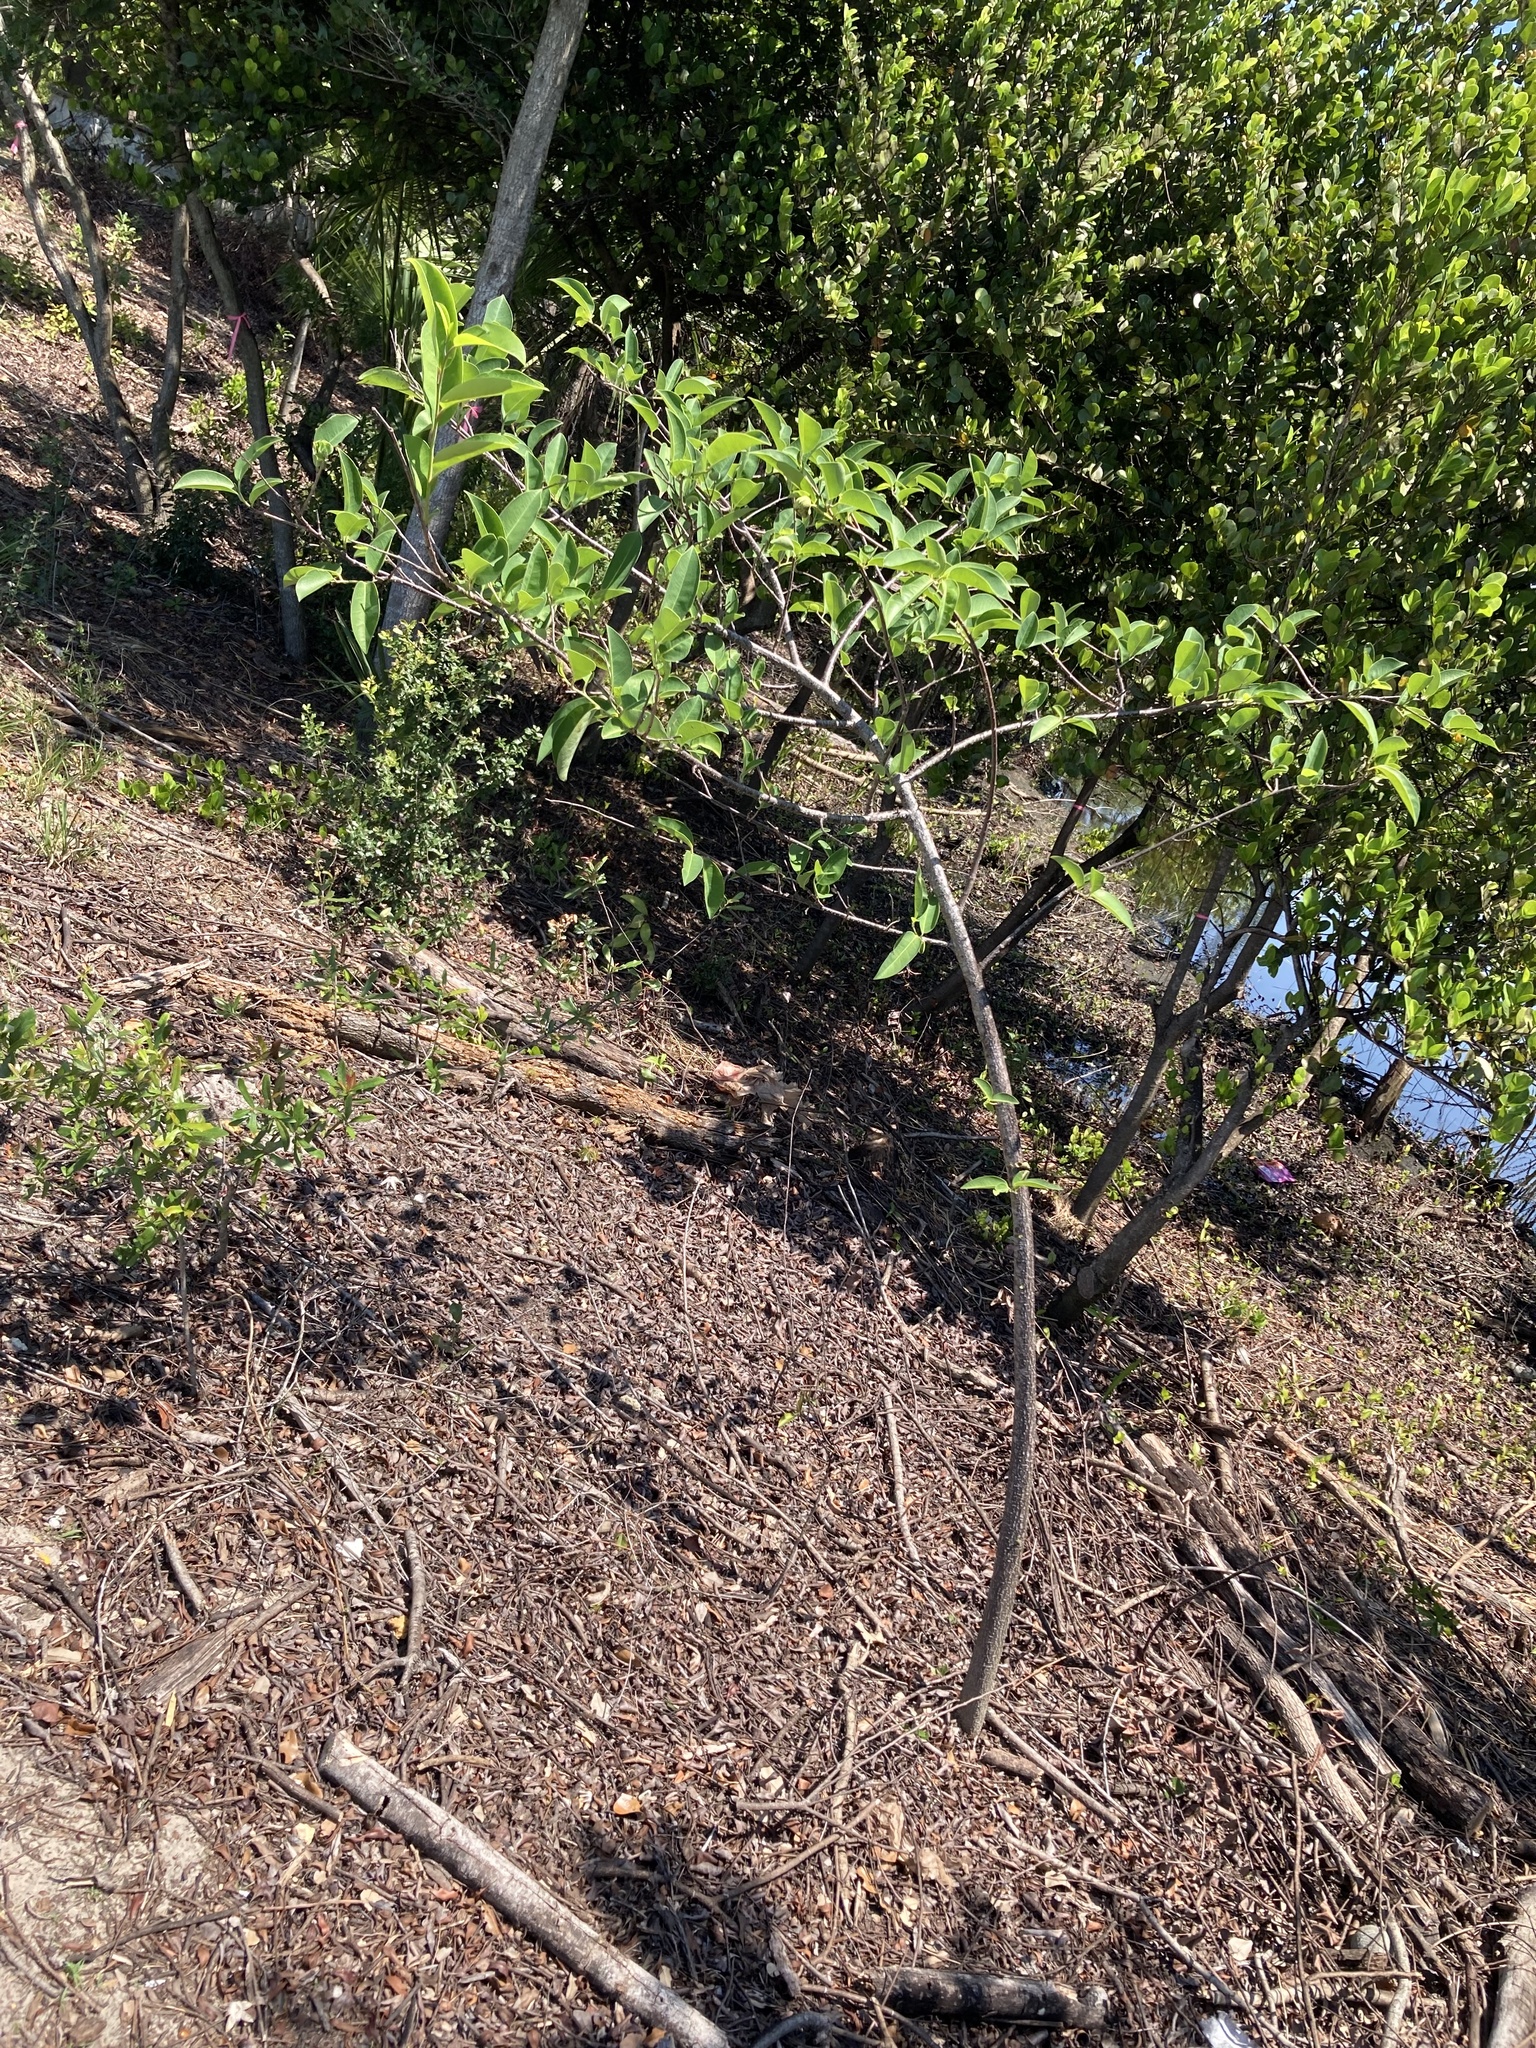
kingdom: Plantae
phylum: Tracheophyta
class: Magnoliopsida
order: Magnoliales
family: Annonaceae
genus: Annona
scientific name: Annona glabra
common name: Monkey apple
